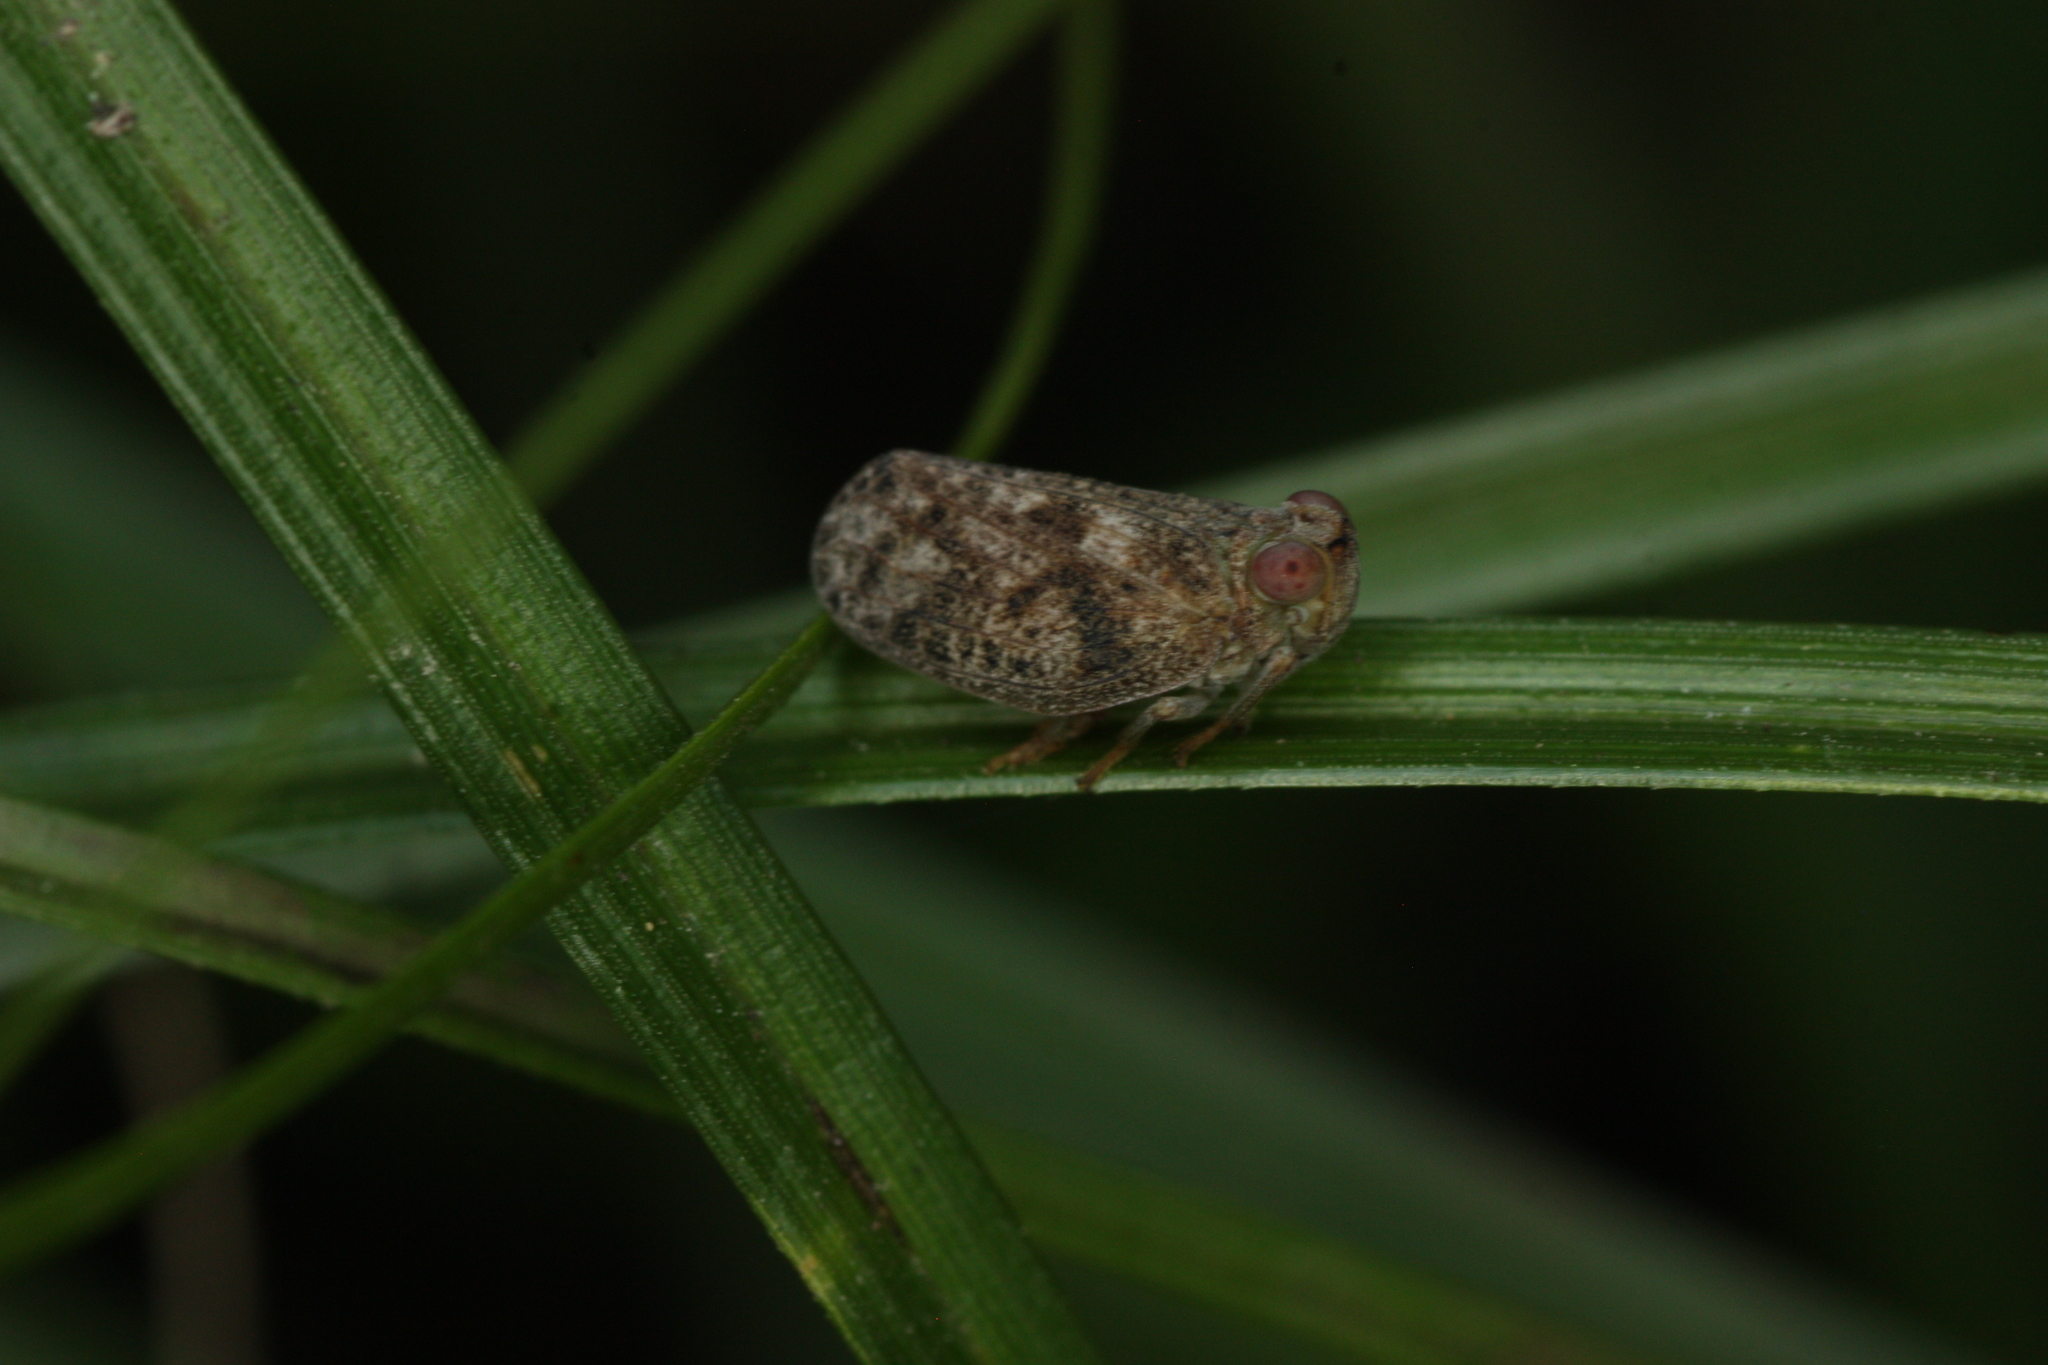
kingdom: Animalia
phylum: Arthropoda
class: Insecta
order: Hemiptera
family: Issidae
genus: Thionia
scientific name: Thionia bullata
